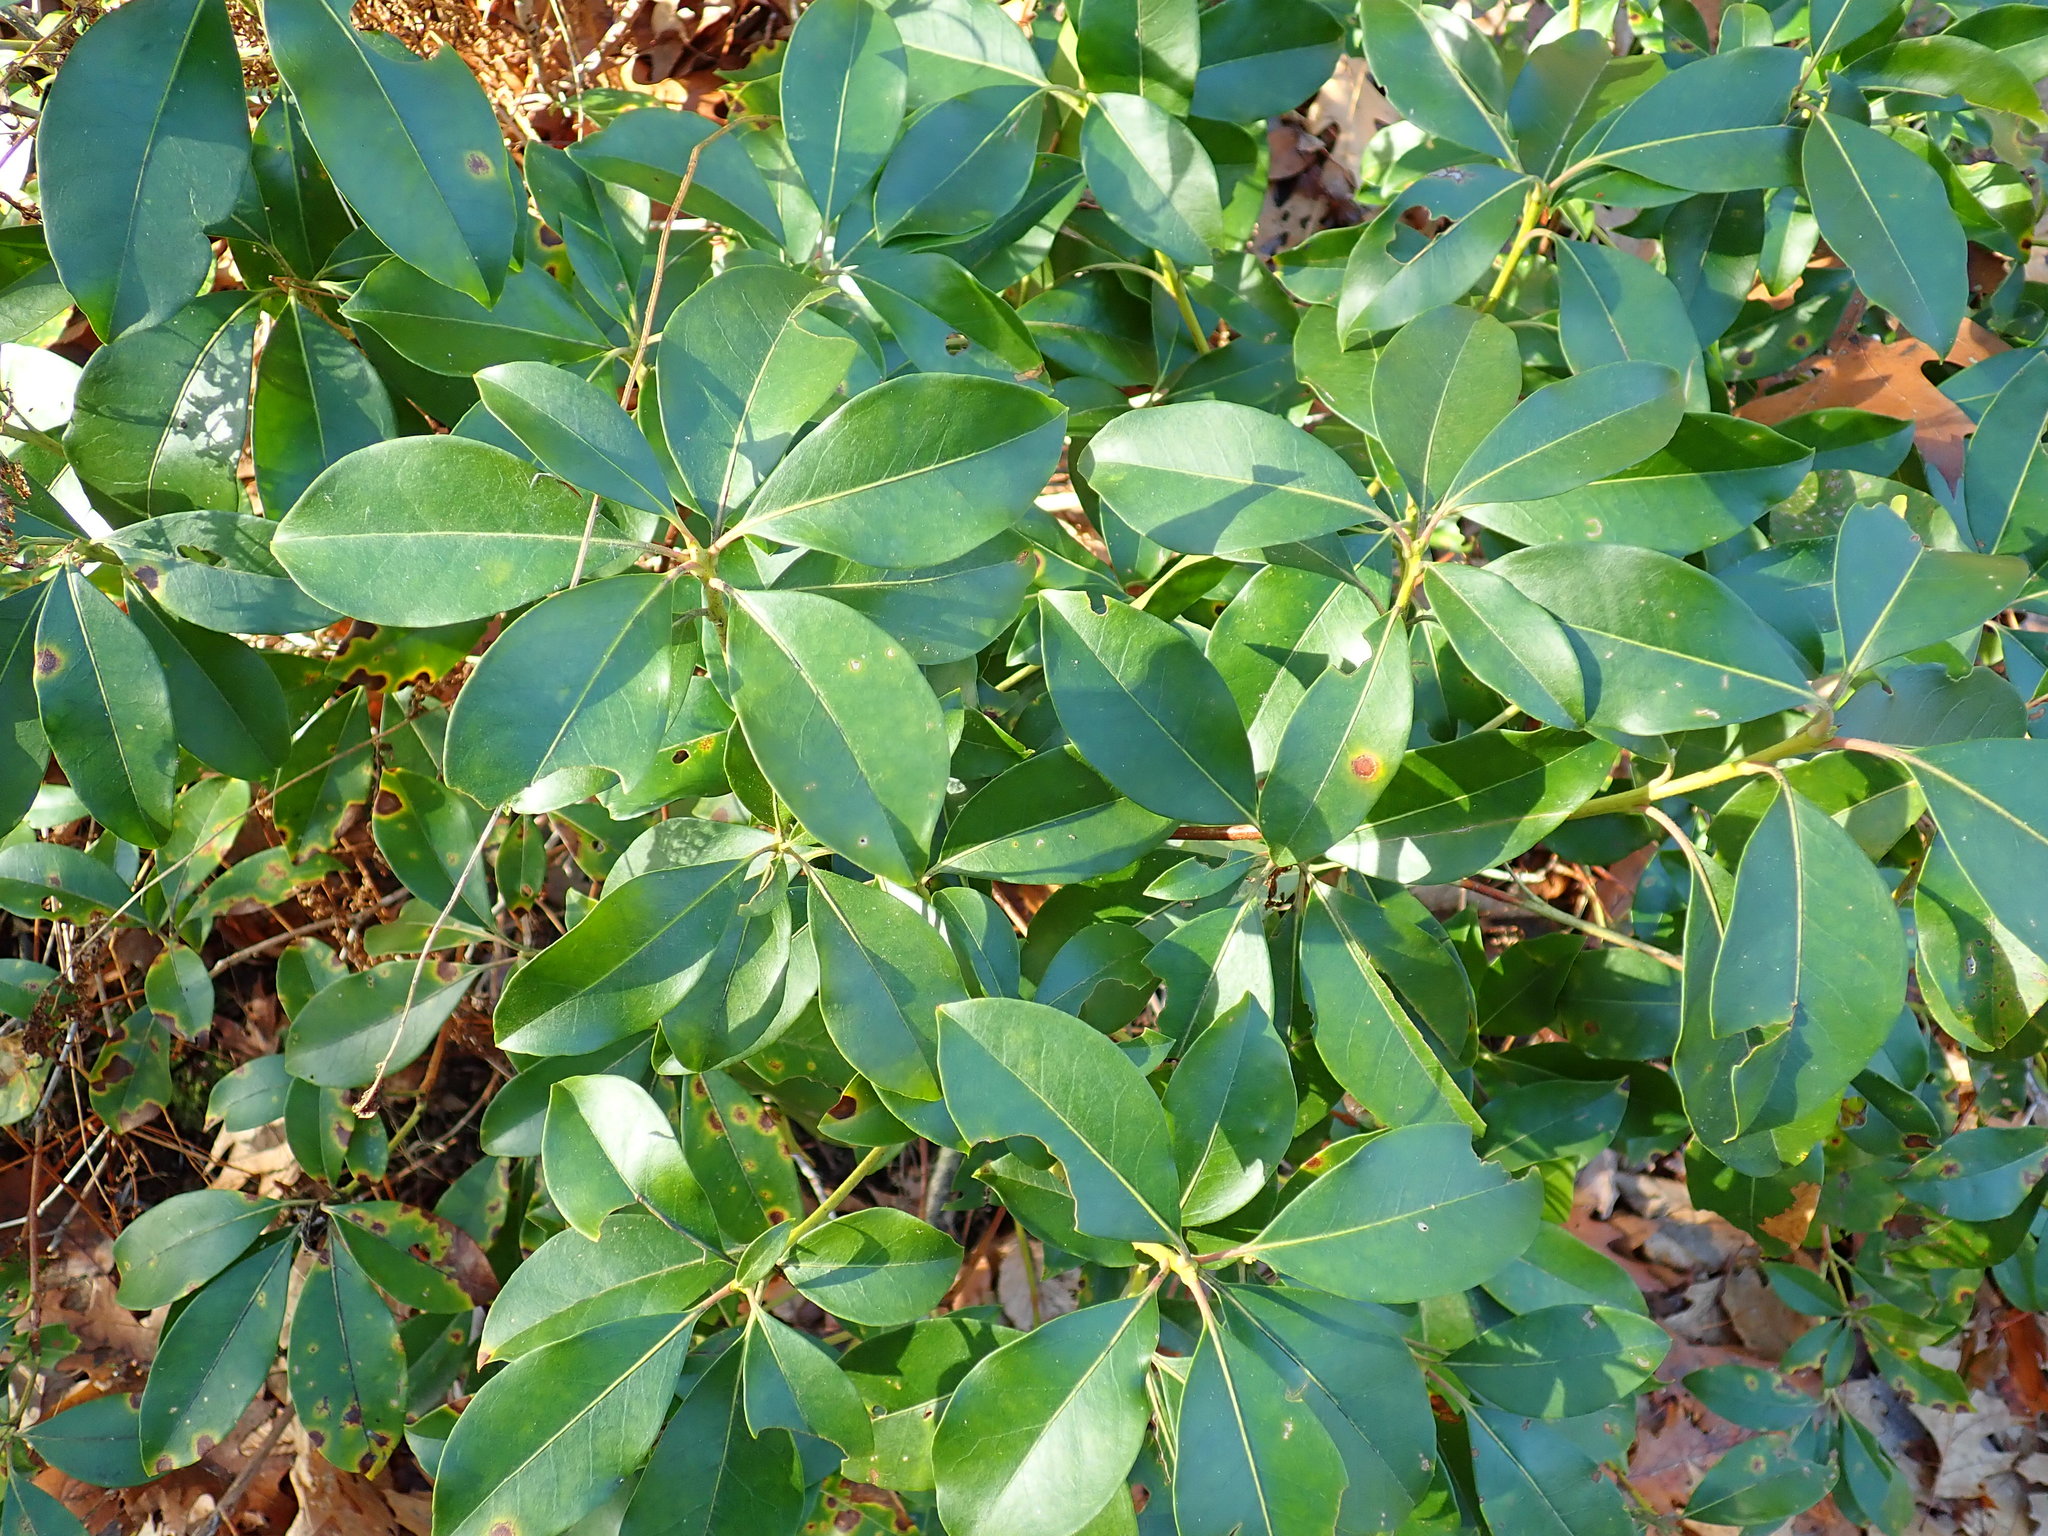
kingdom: Plantae
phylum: Tracheophyta
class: Magnoliopsida
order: Ericales
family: Ericaceae
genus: Kalmia
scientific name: Kalmia latifolia
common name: Mountain-laurel
